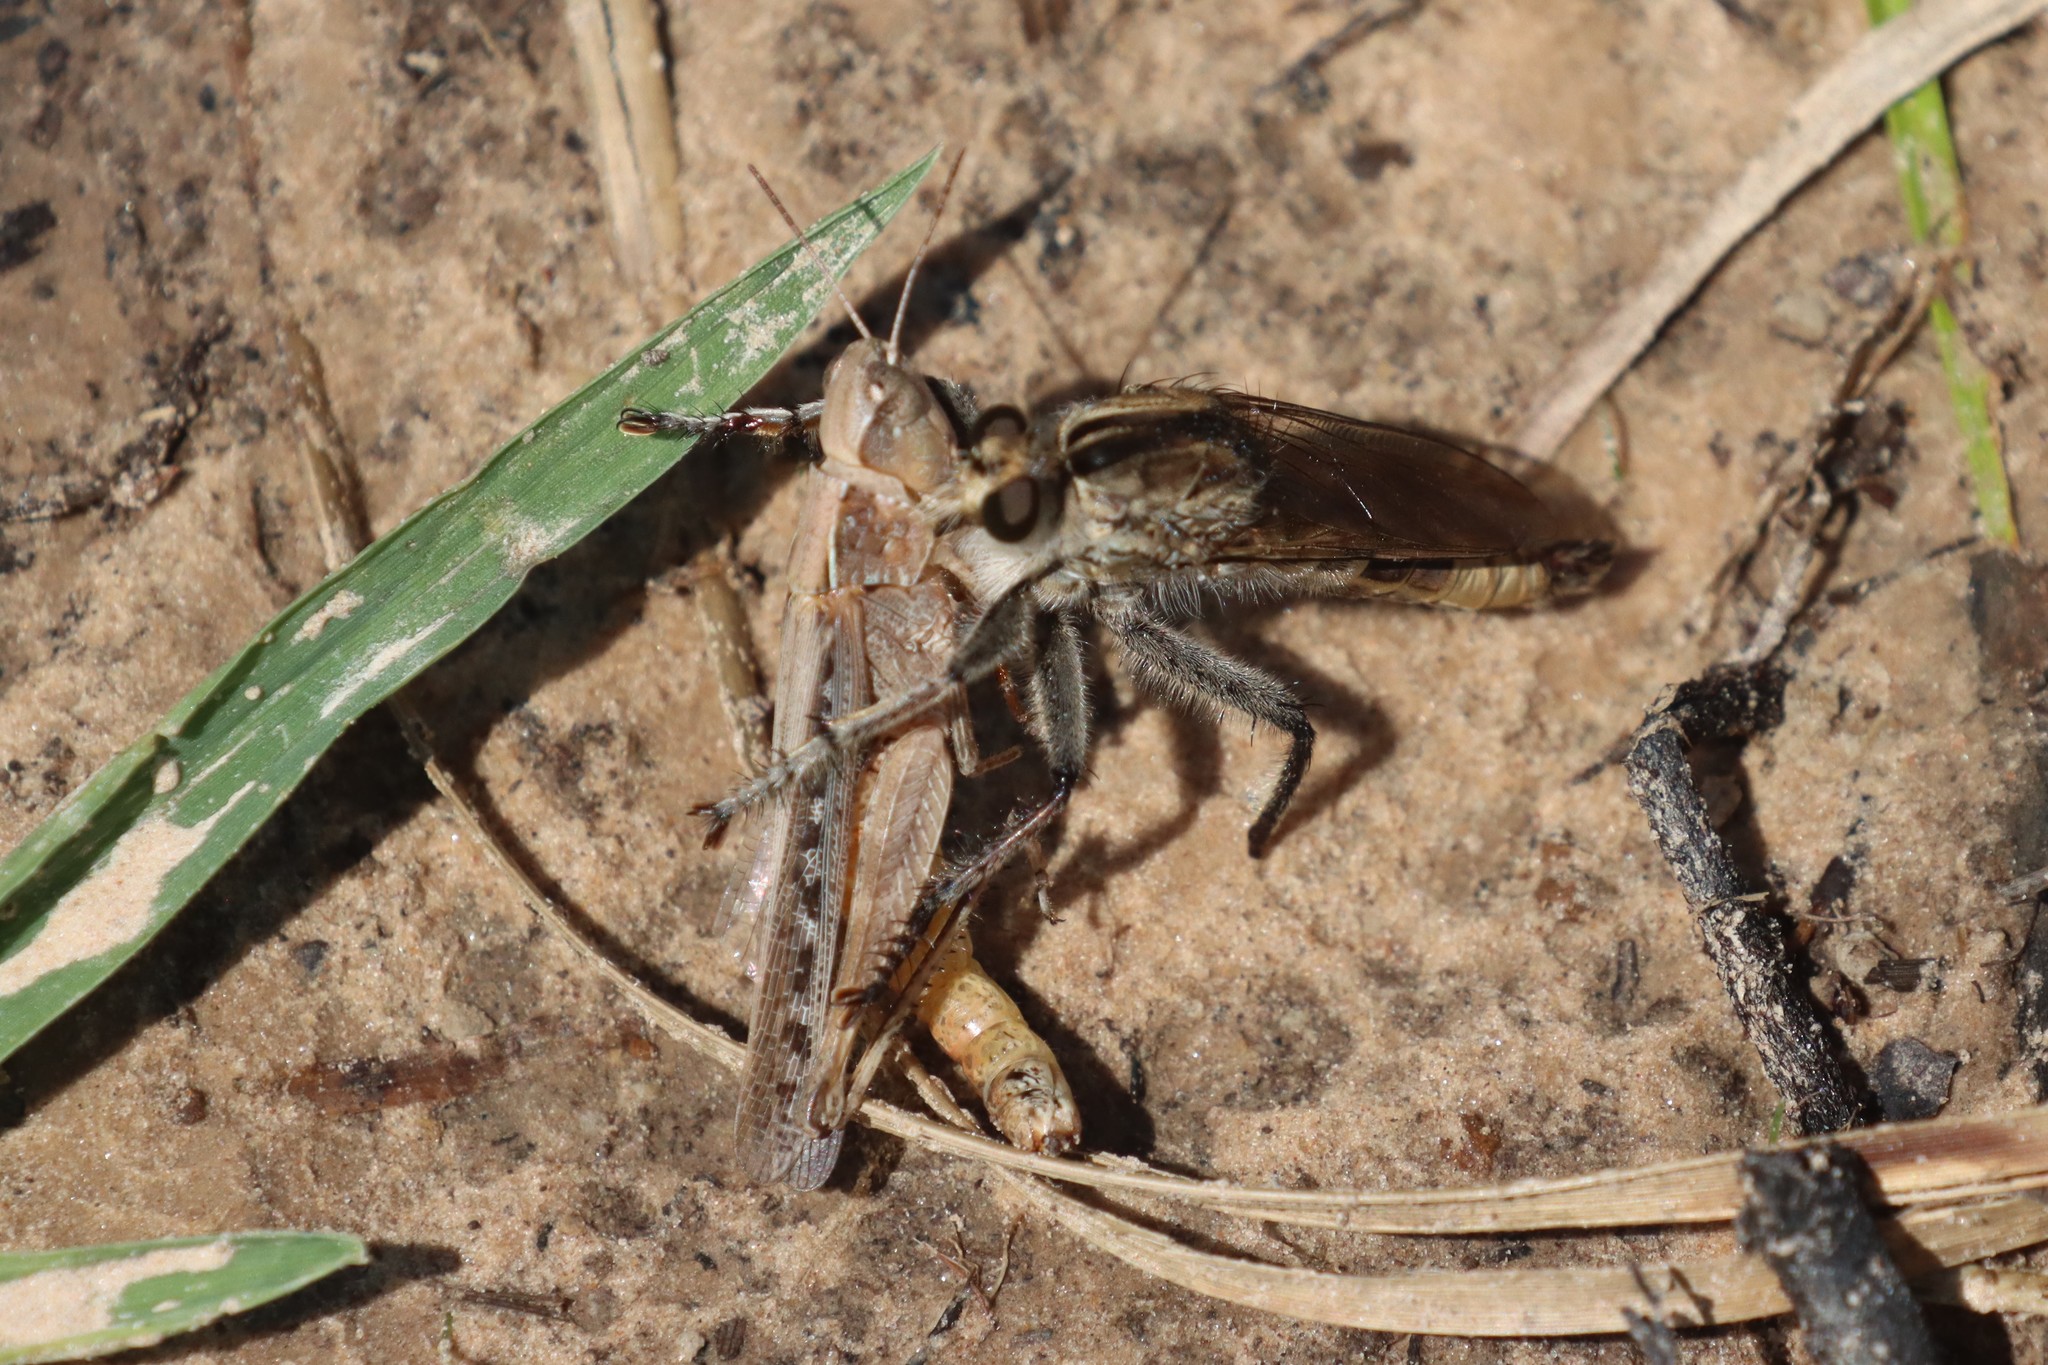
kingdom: Animalia
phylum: Arthropoda
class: Insecta
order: Diptera
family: Asilidae
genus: Triorla
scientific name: Triorla interrupta
